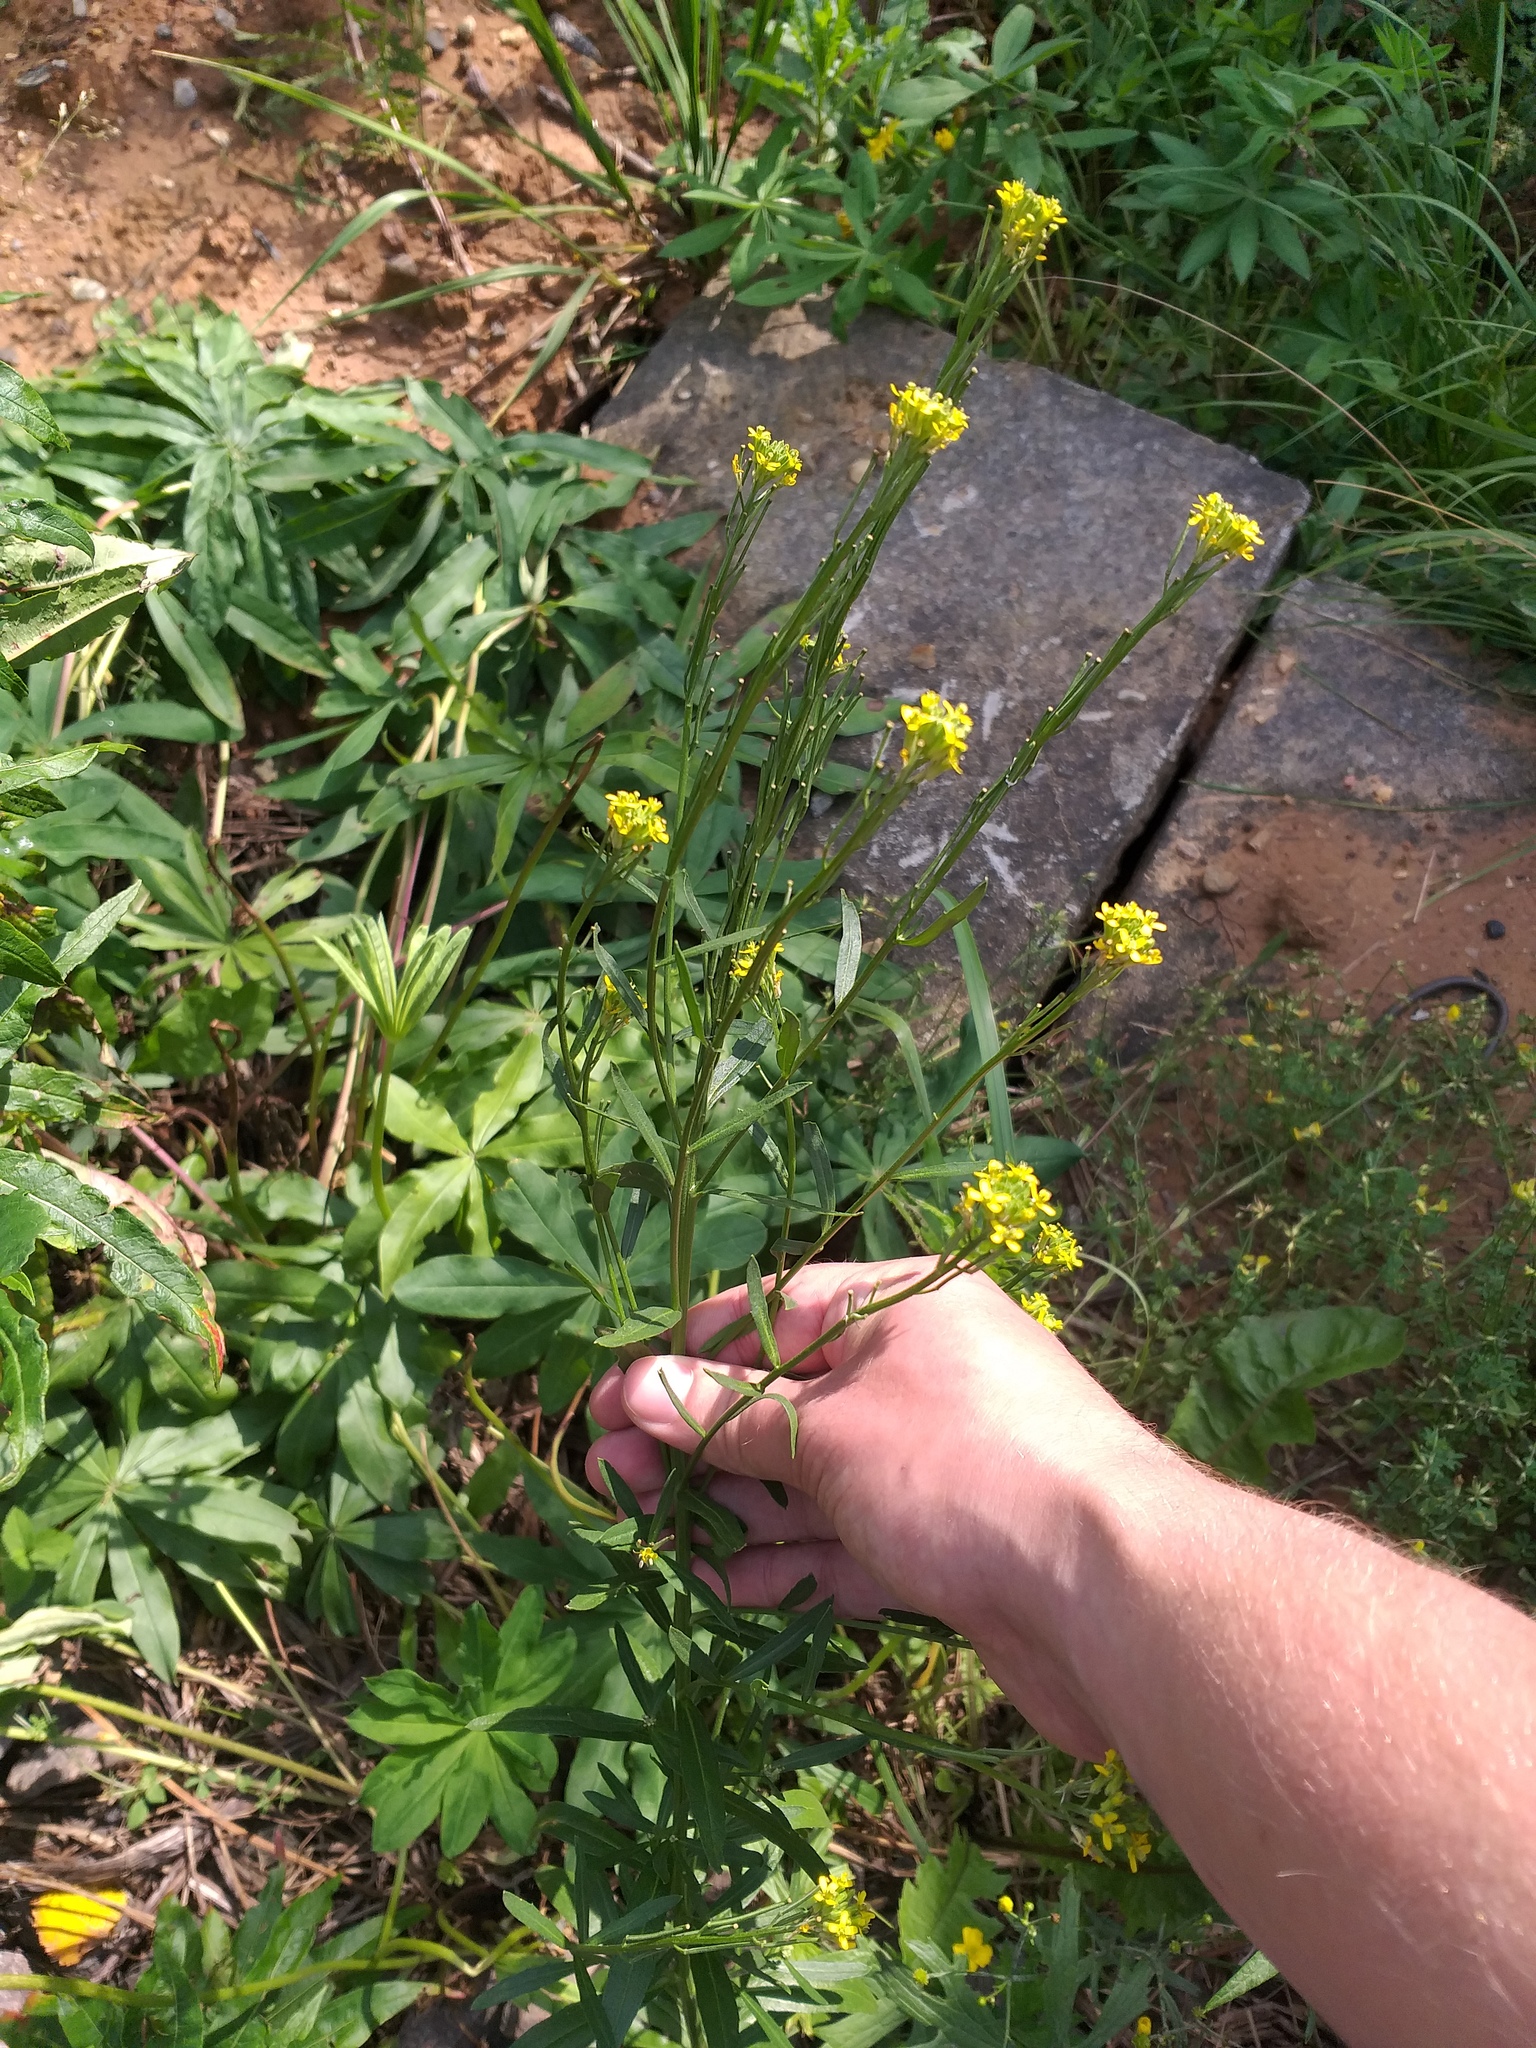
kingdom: Plantae
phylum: Tracheophyta
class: Magnoliopsida
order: Brassicales
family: Brassicaceae
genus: Erysimum
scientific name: Erysimum hieraciifolium
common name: European wallflower
